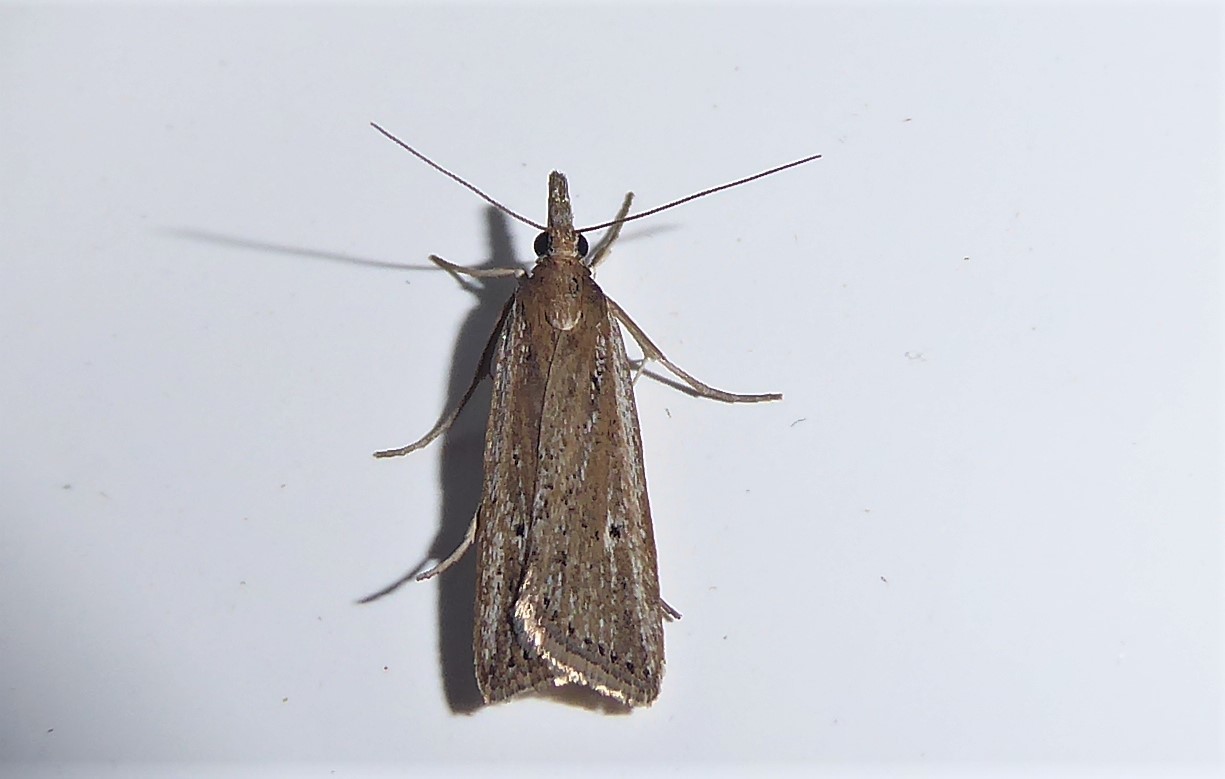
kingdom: Animalia
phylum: Arthropoda
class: Insecta
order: Lepidoptera
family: Crambidae
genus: Eudonia
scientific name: Eudonia sabulosella
